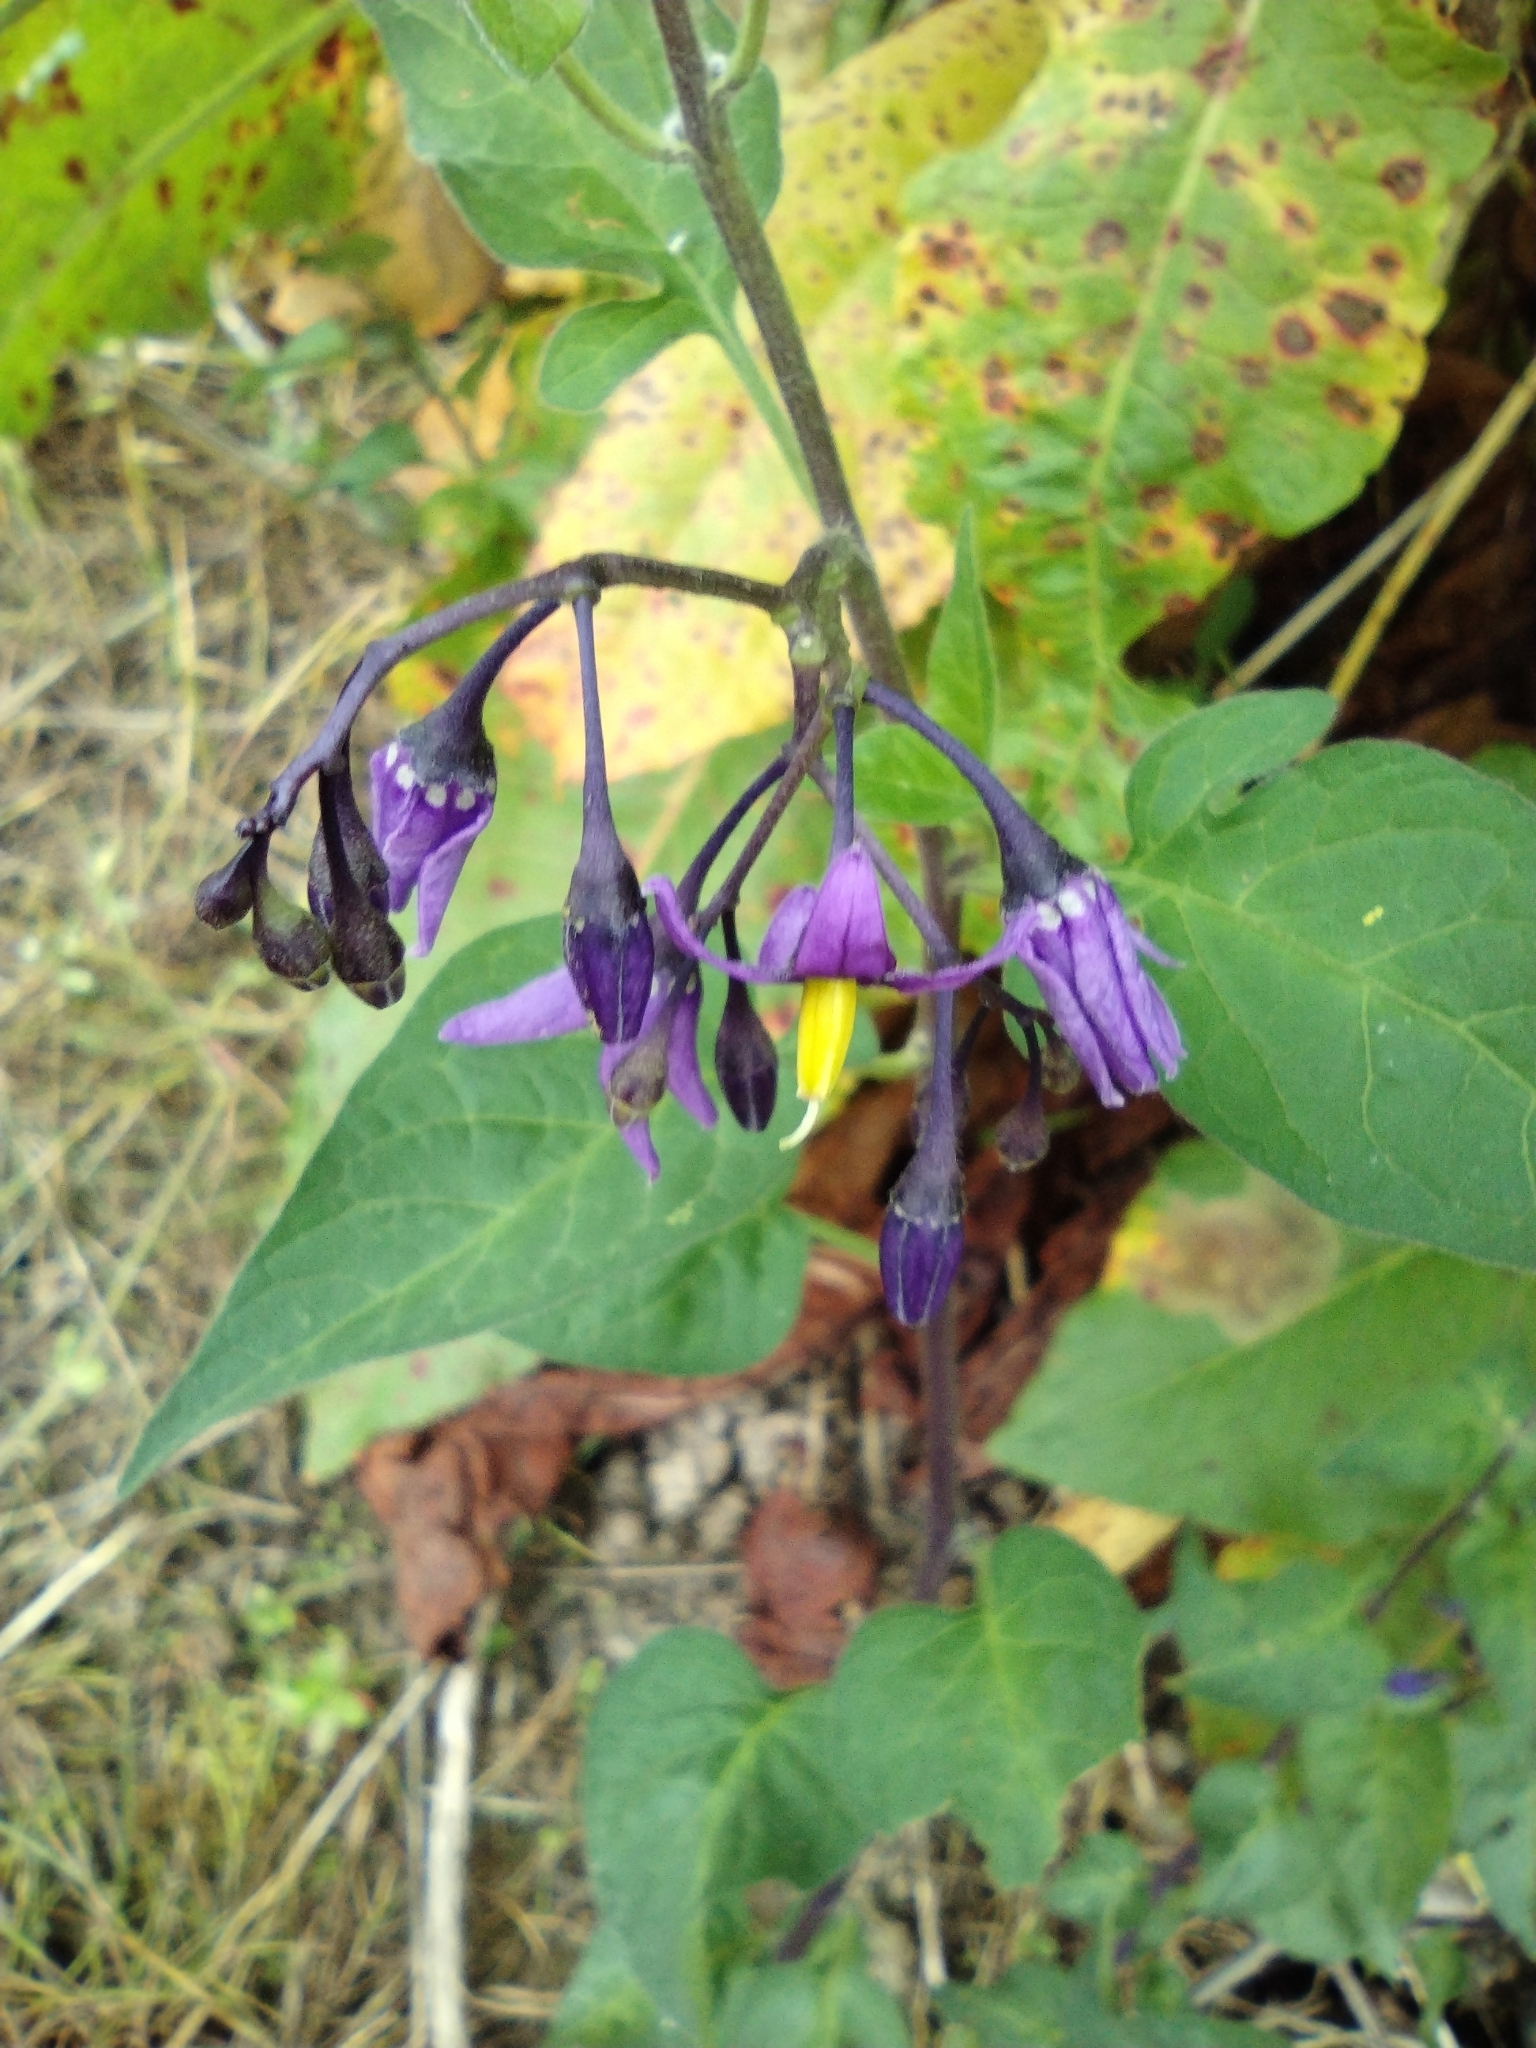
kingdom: Plantae
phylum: Tracheophyta
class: Magnoliopsida
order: Solanales
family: Solanaceae
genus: Solanum
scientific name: Solanum dulcamara
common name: Climbing nightshade
